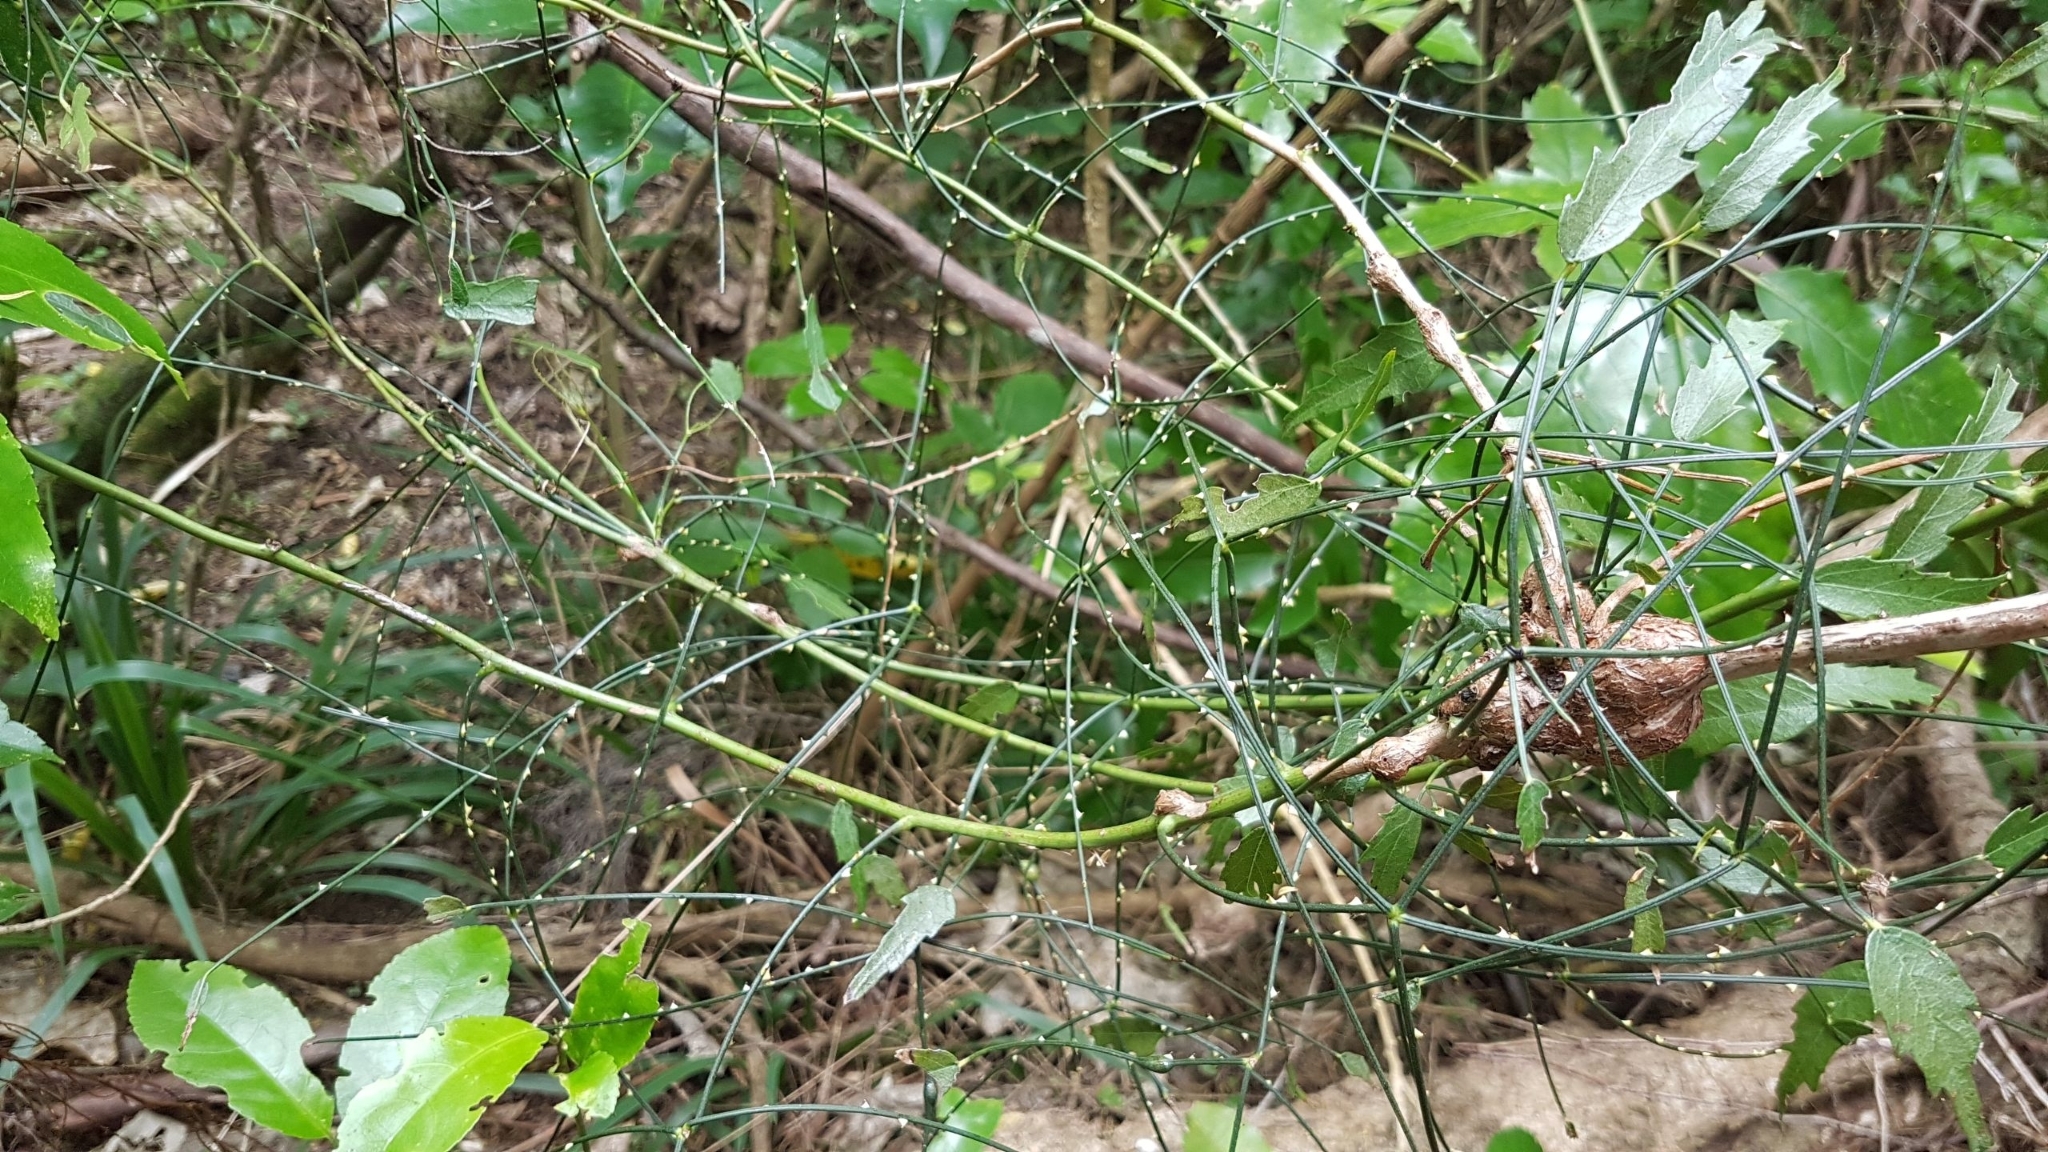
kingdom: Plantae
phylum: Tracheophyta
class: Magnoliopsida
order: Rosales
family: Rosaceae
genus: Rubus
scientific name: Rubus squarrosus
